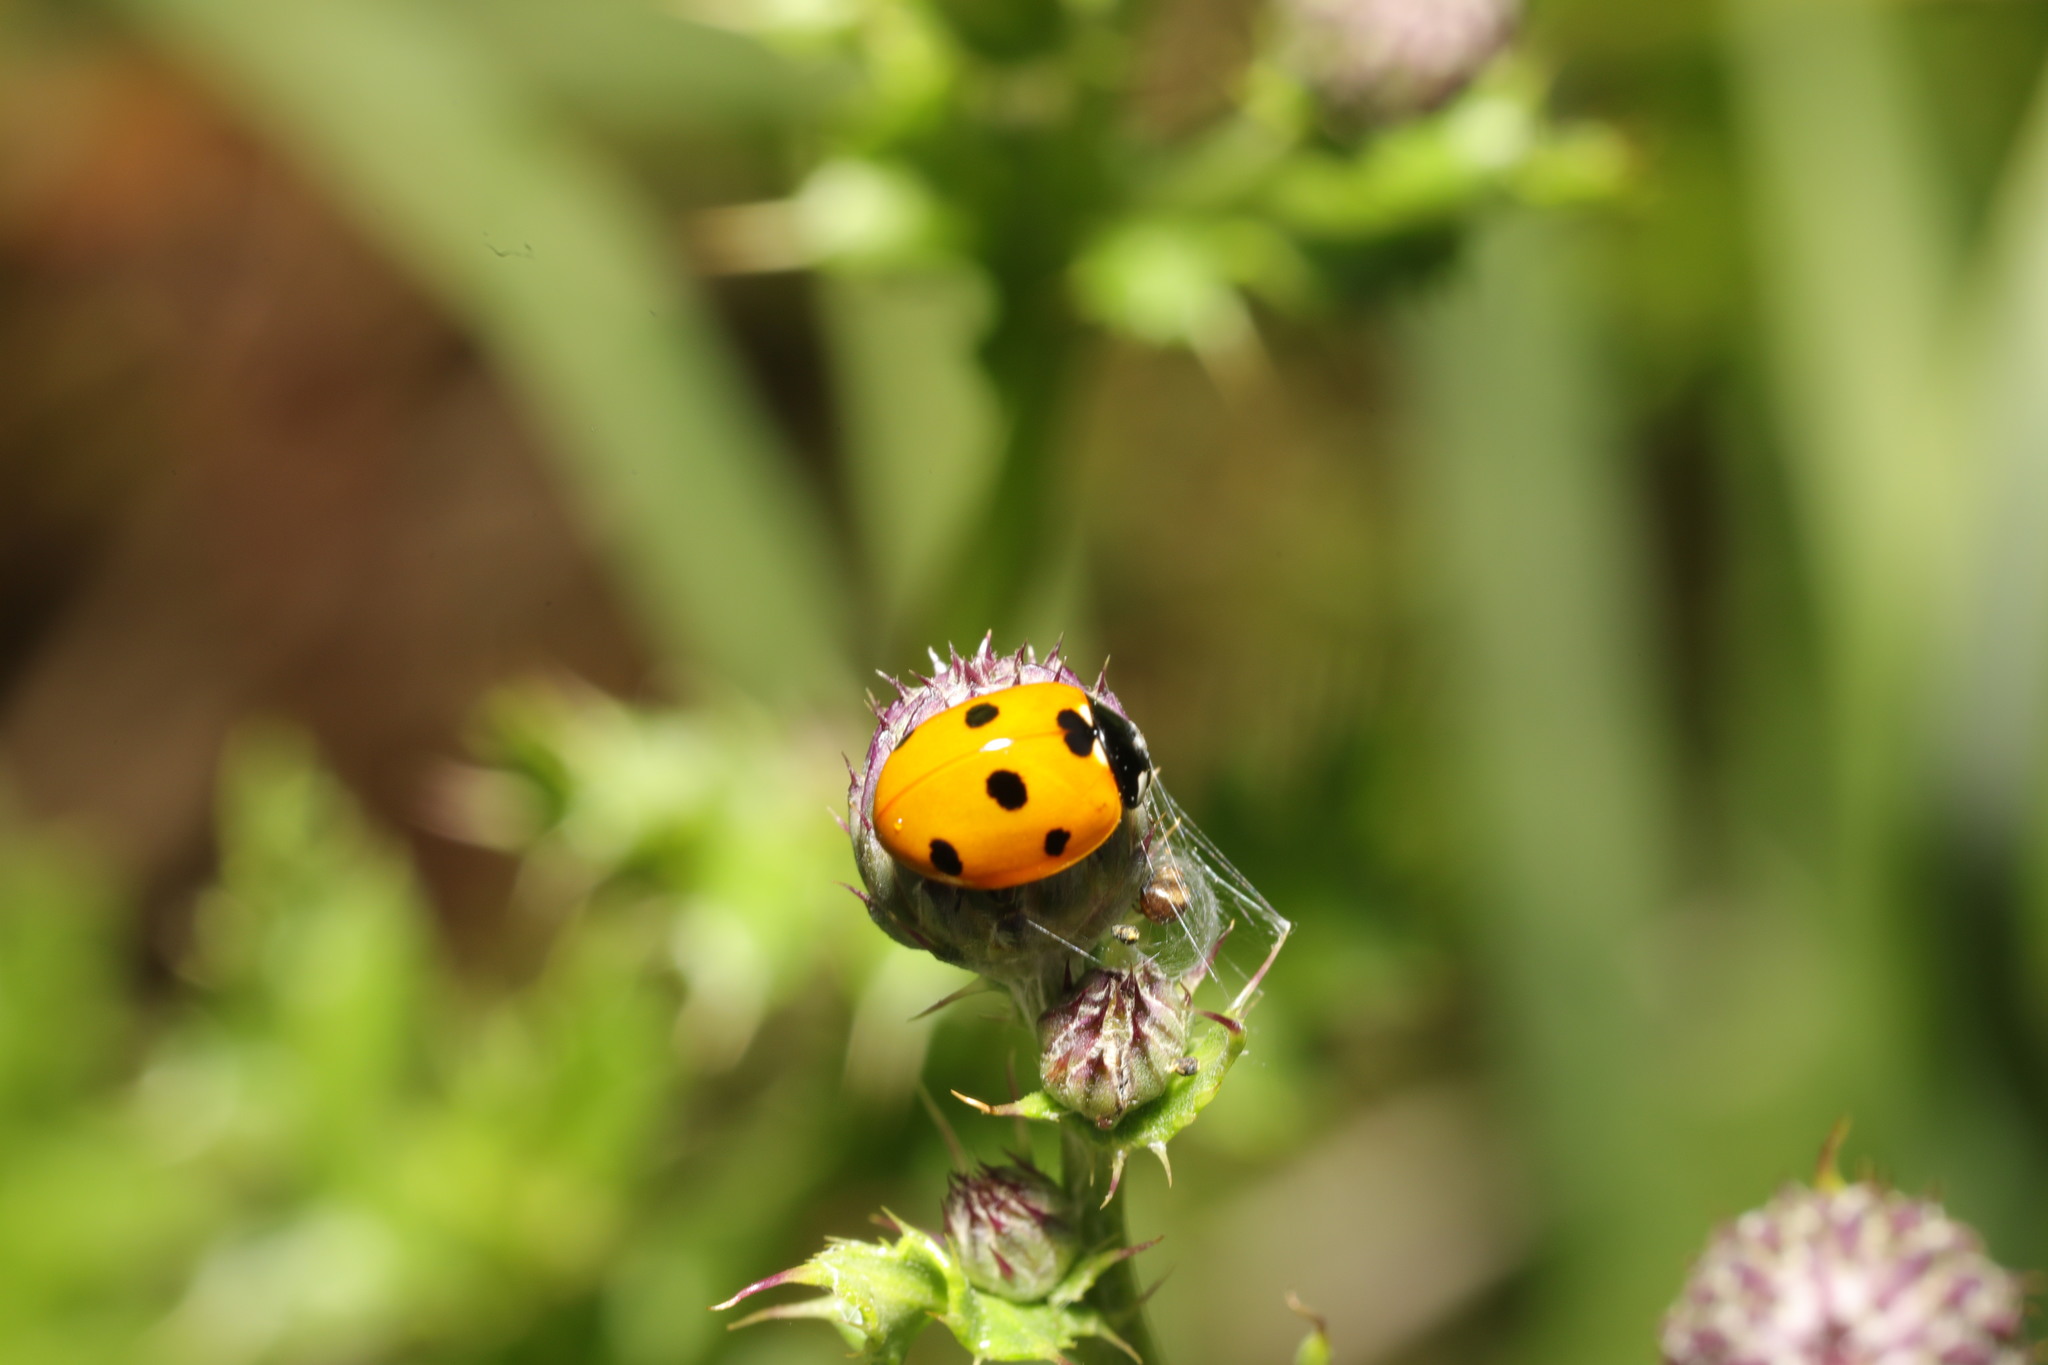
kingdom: Animalia
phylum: Arthropoda
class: Insecta
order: Coleoptera
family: Coccinellidae
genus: Coccinella
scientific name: Coccinella septempunctata
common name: Sevenspotted lady beetle
